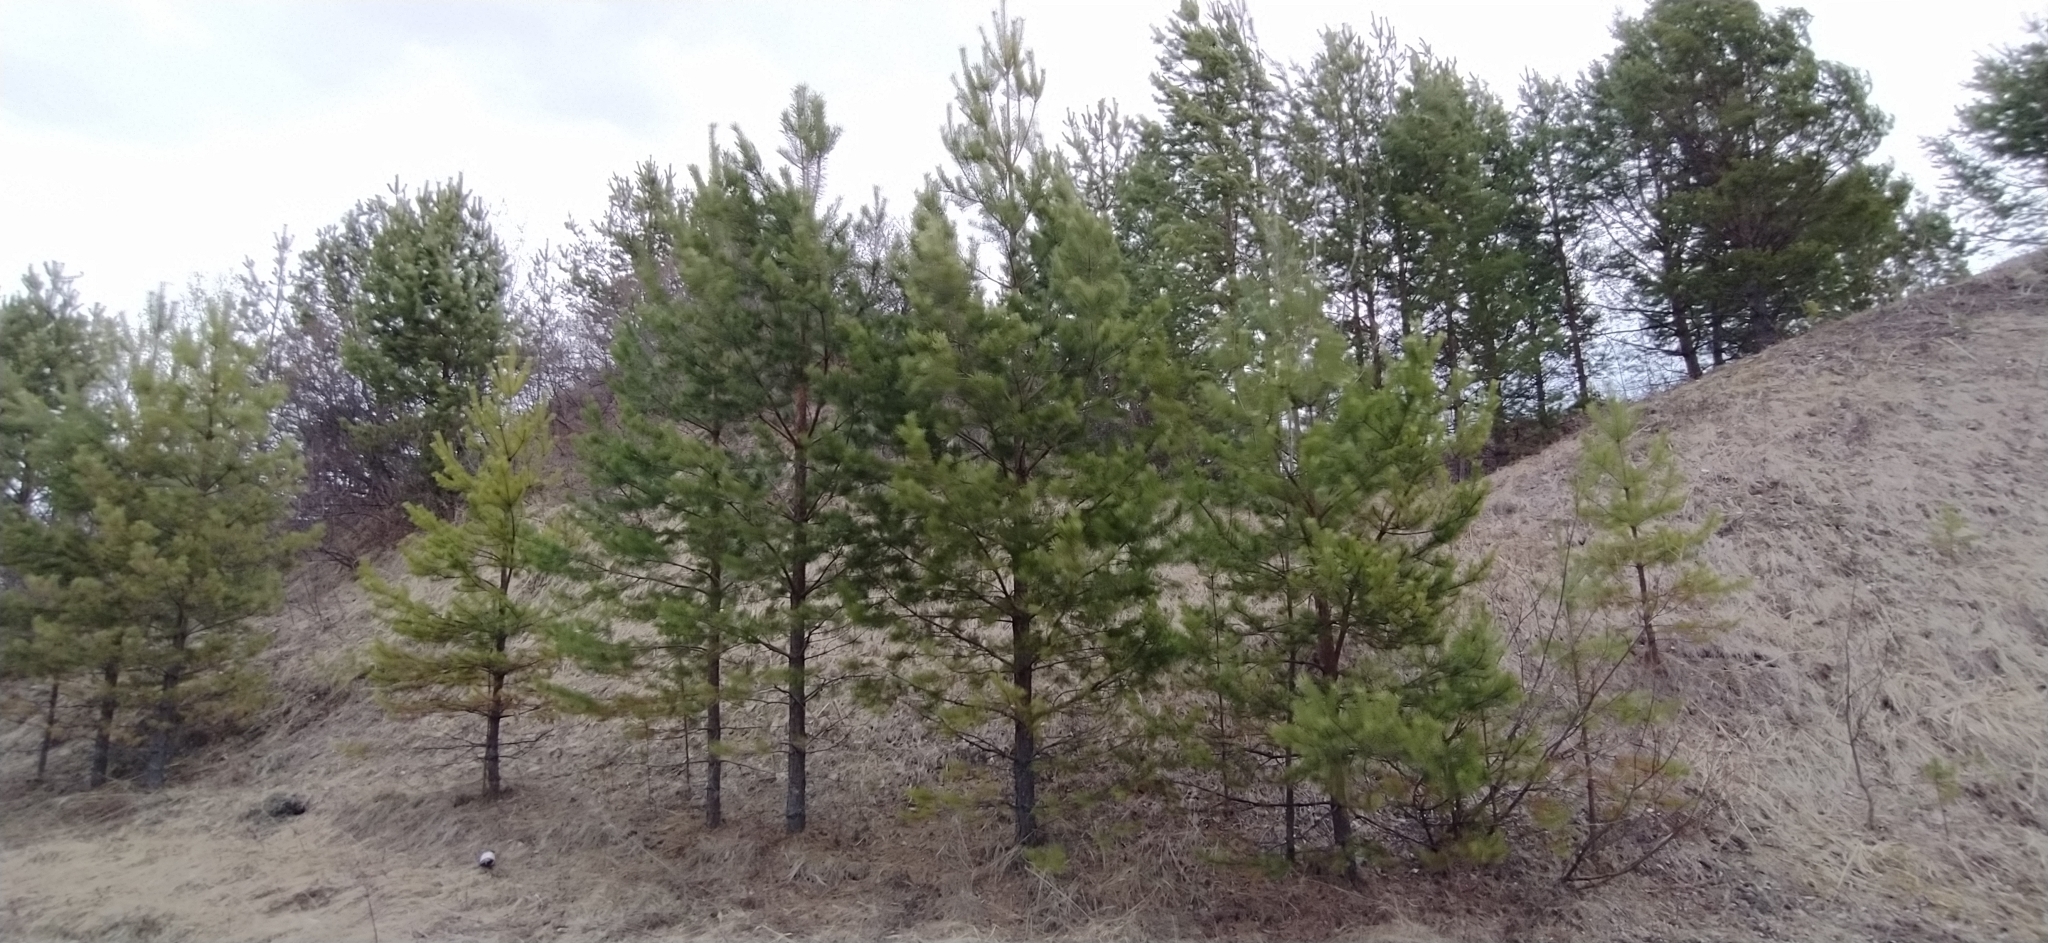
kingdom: Plantae
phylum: Tracheophyta
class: Pinopsida
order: Pinales
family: Pinaceae
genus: Pinus
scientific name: Pinus sylvestris
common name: Scots pine
